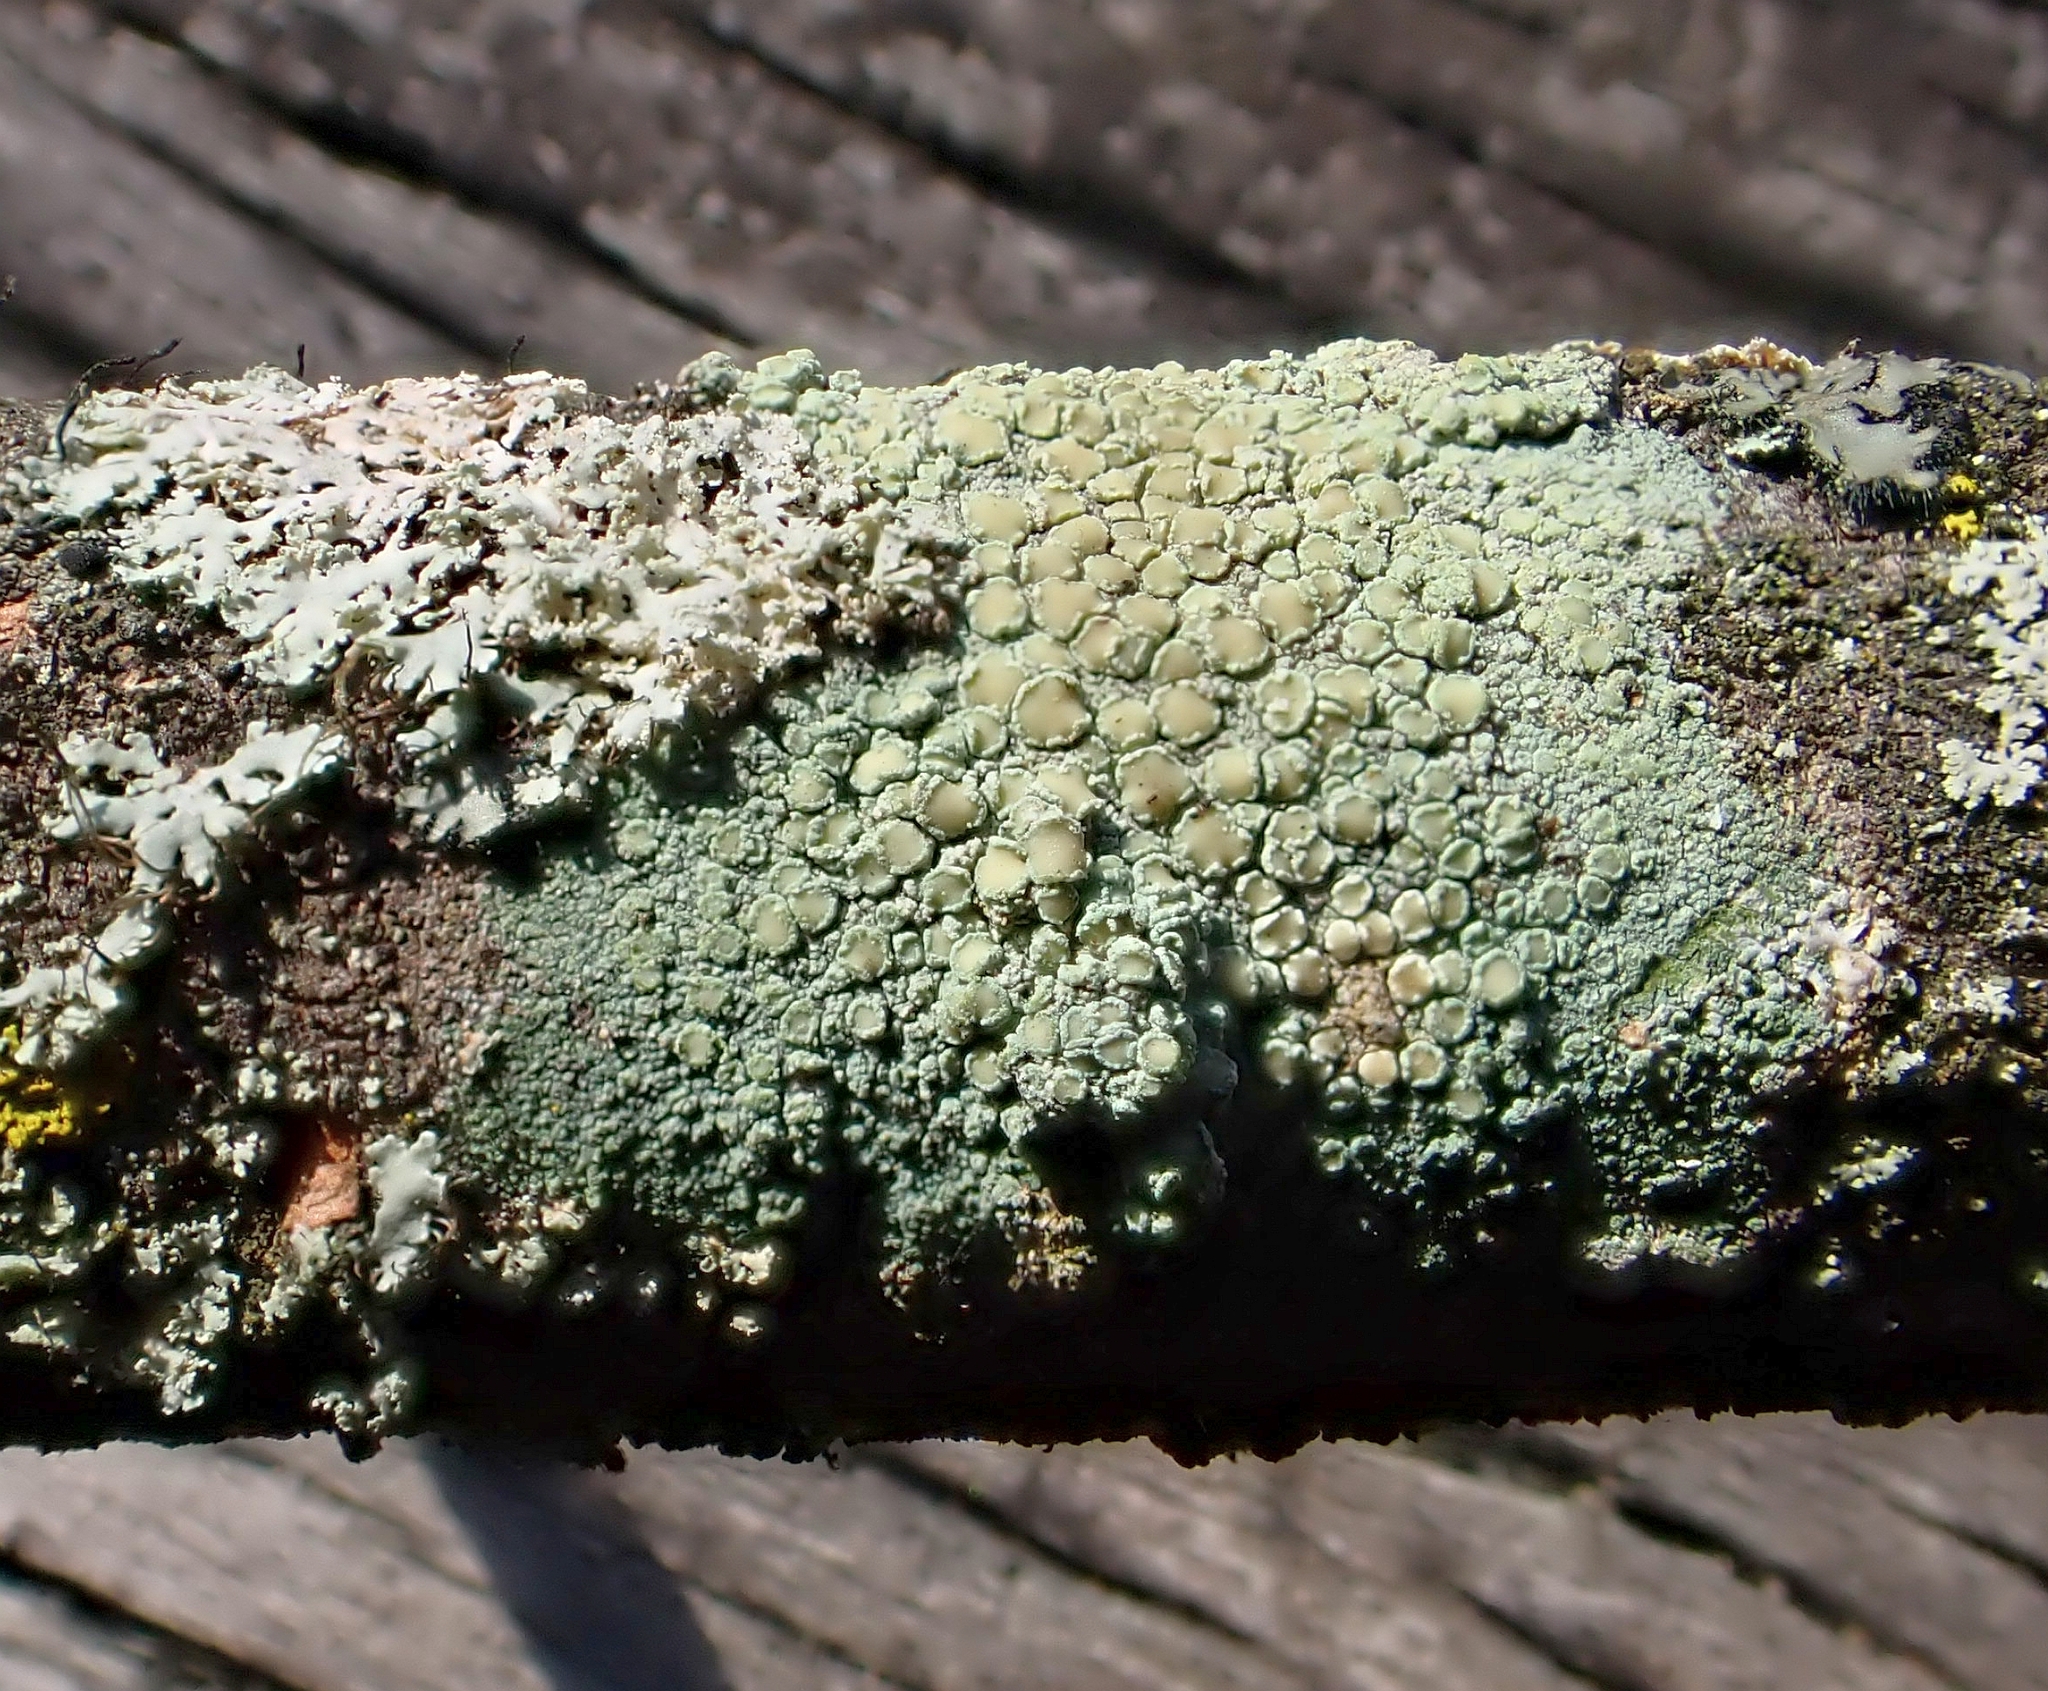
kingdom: Fungi
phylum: Ascomycota
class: Lecanoromycetes
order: Lecanorales
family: Lecanoraceae
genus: Lecanora
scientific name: Lecanora strobilina
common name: Mealy rim-lichen
